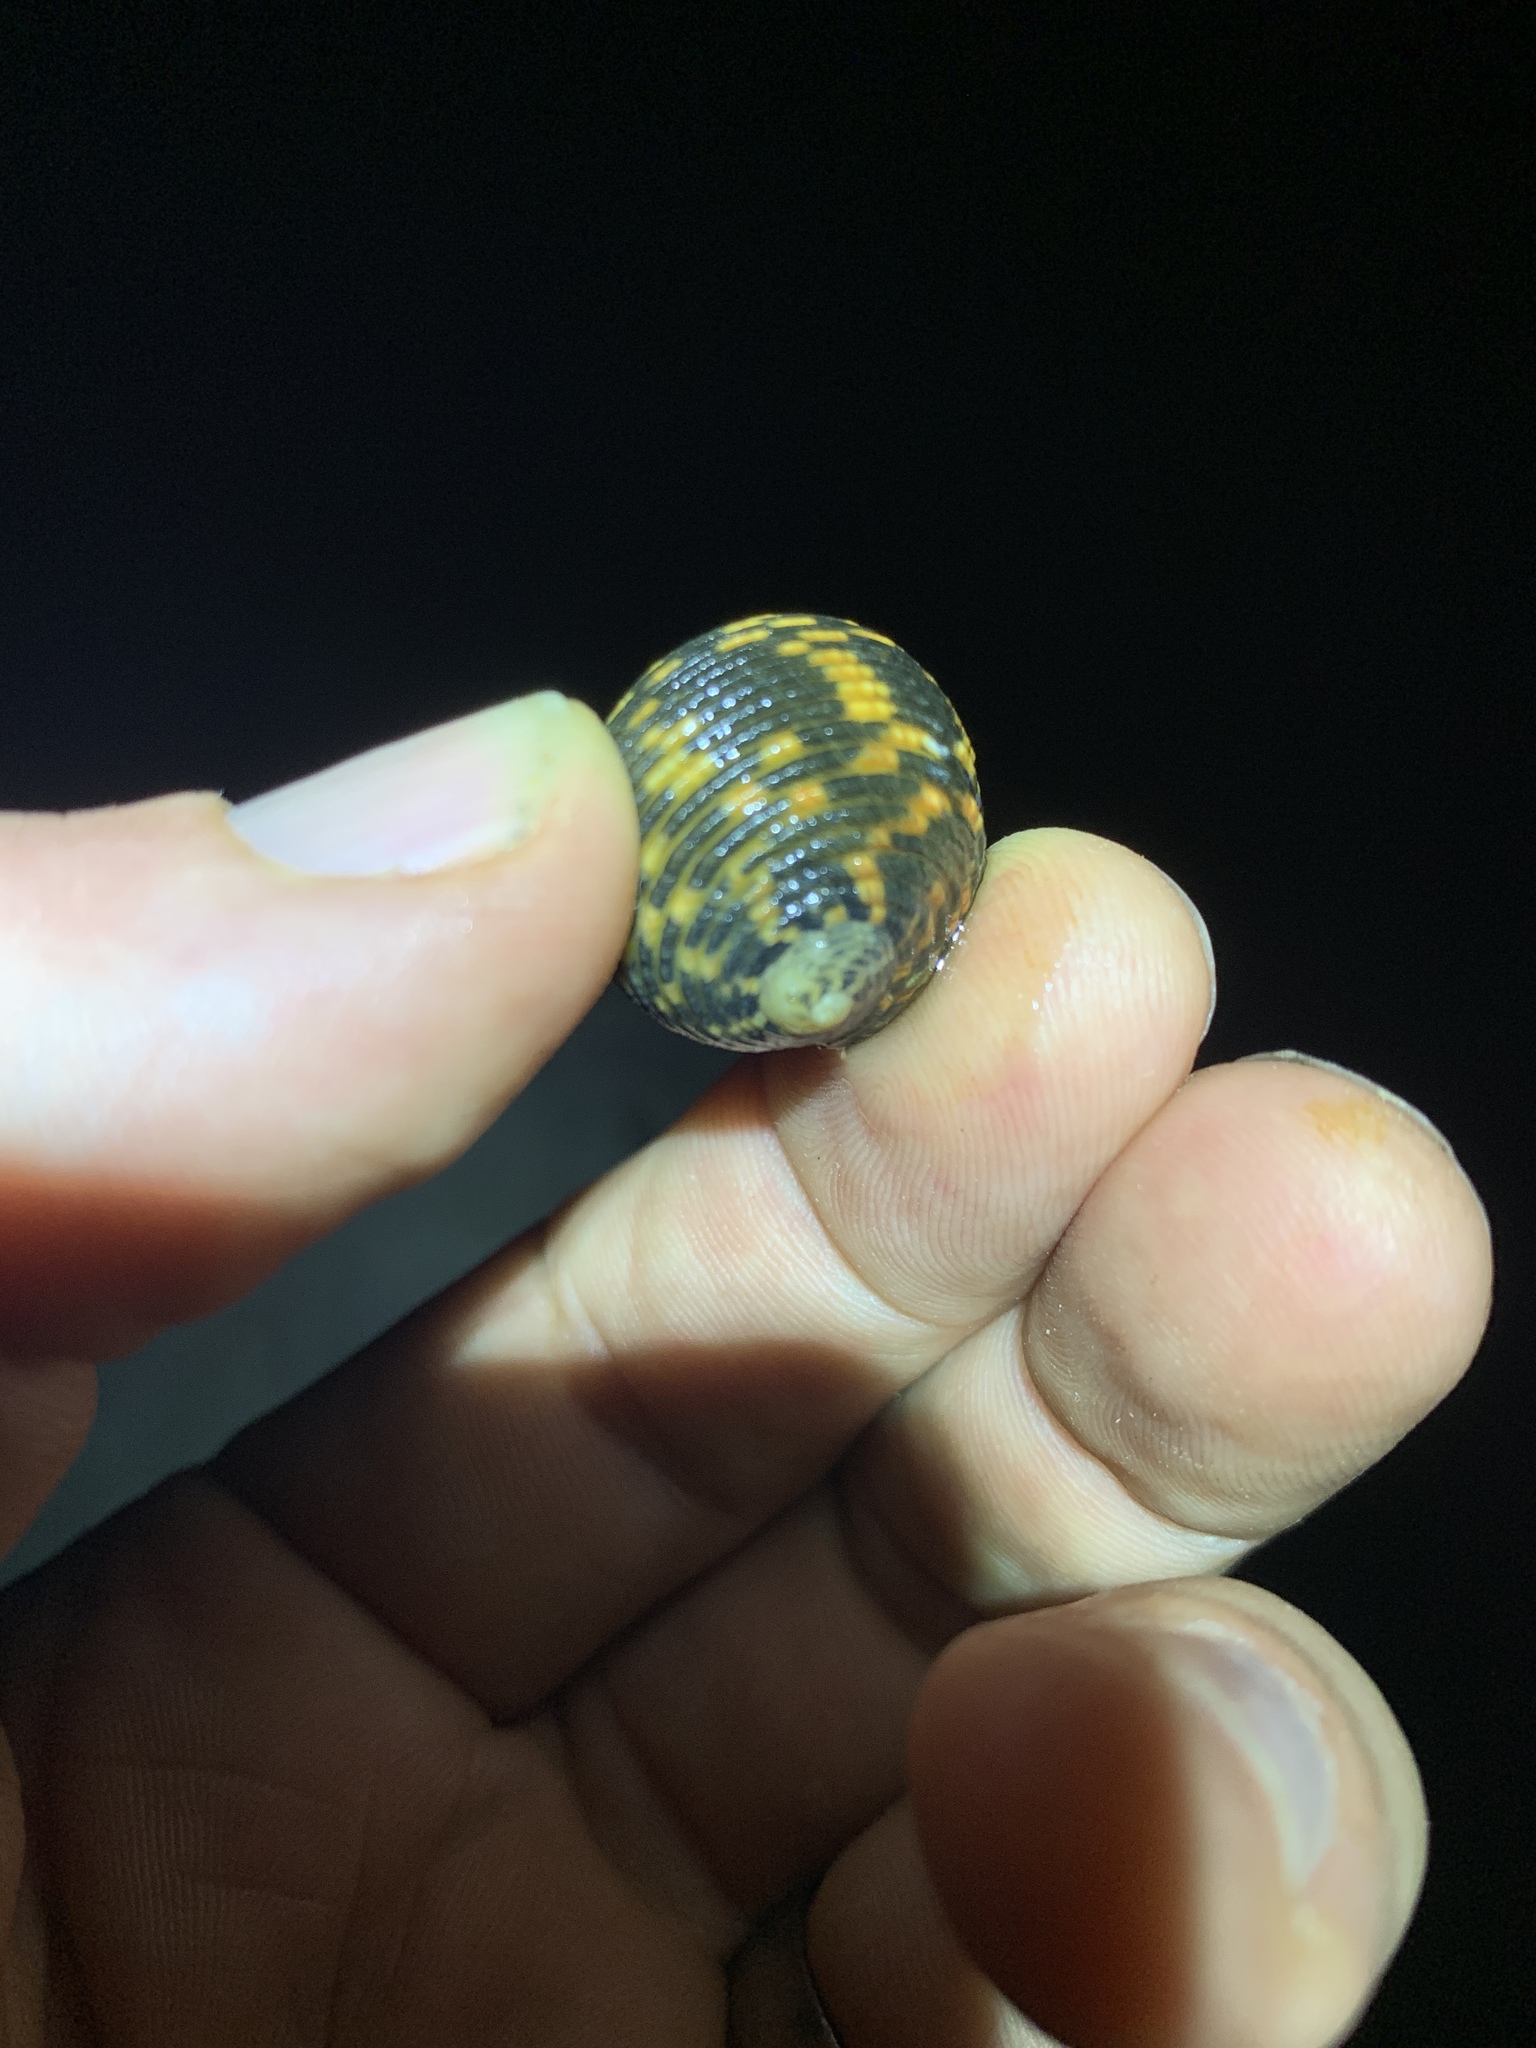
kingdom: Animalia
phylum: Mollusca
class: Gastropoda
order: Cycloneritida
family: Neritidae
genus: Nerita
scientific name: Nerita scabricosta
